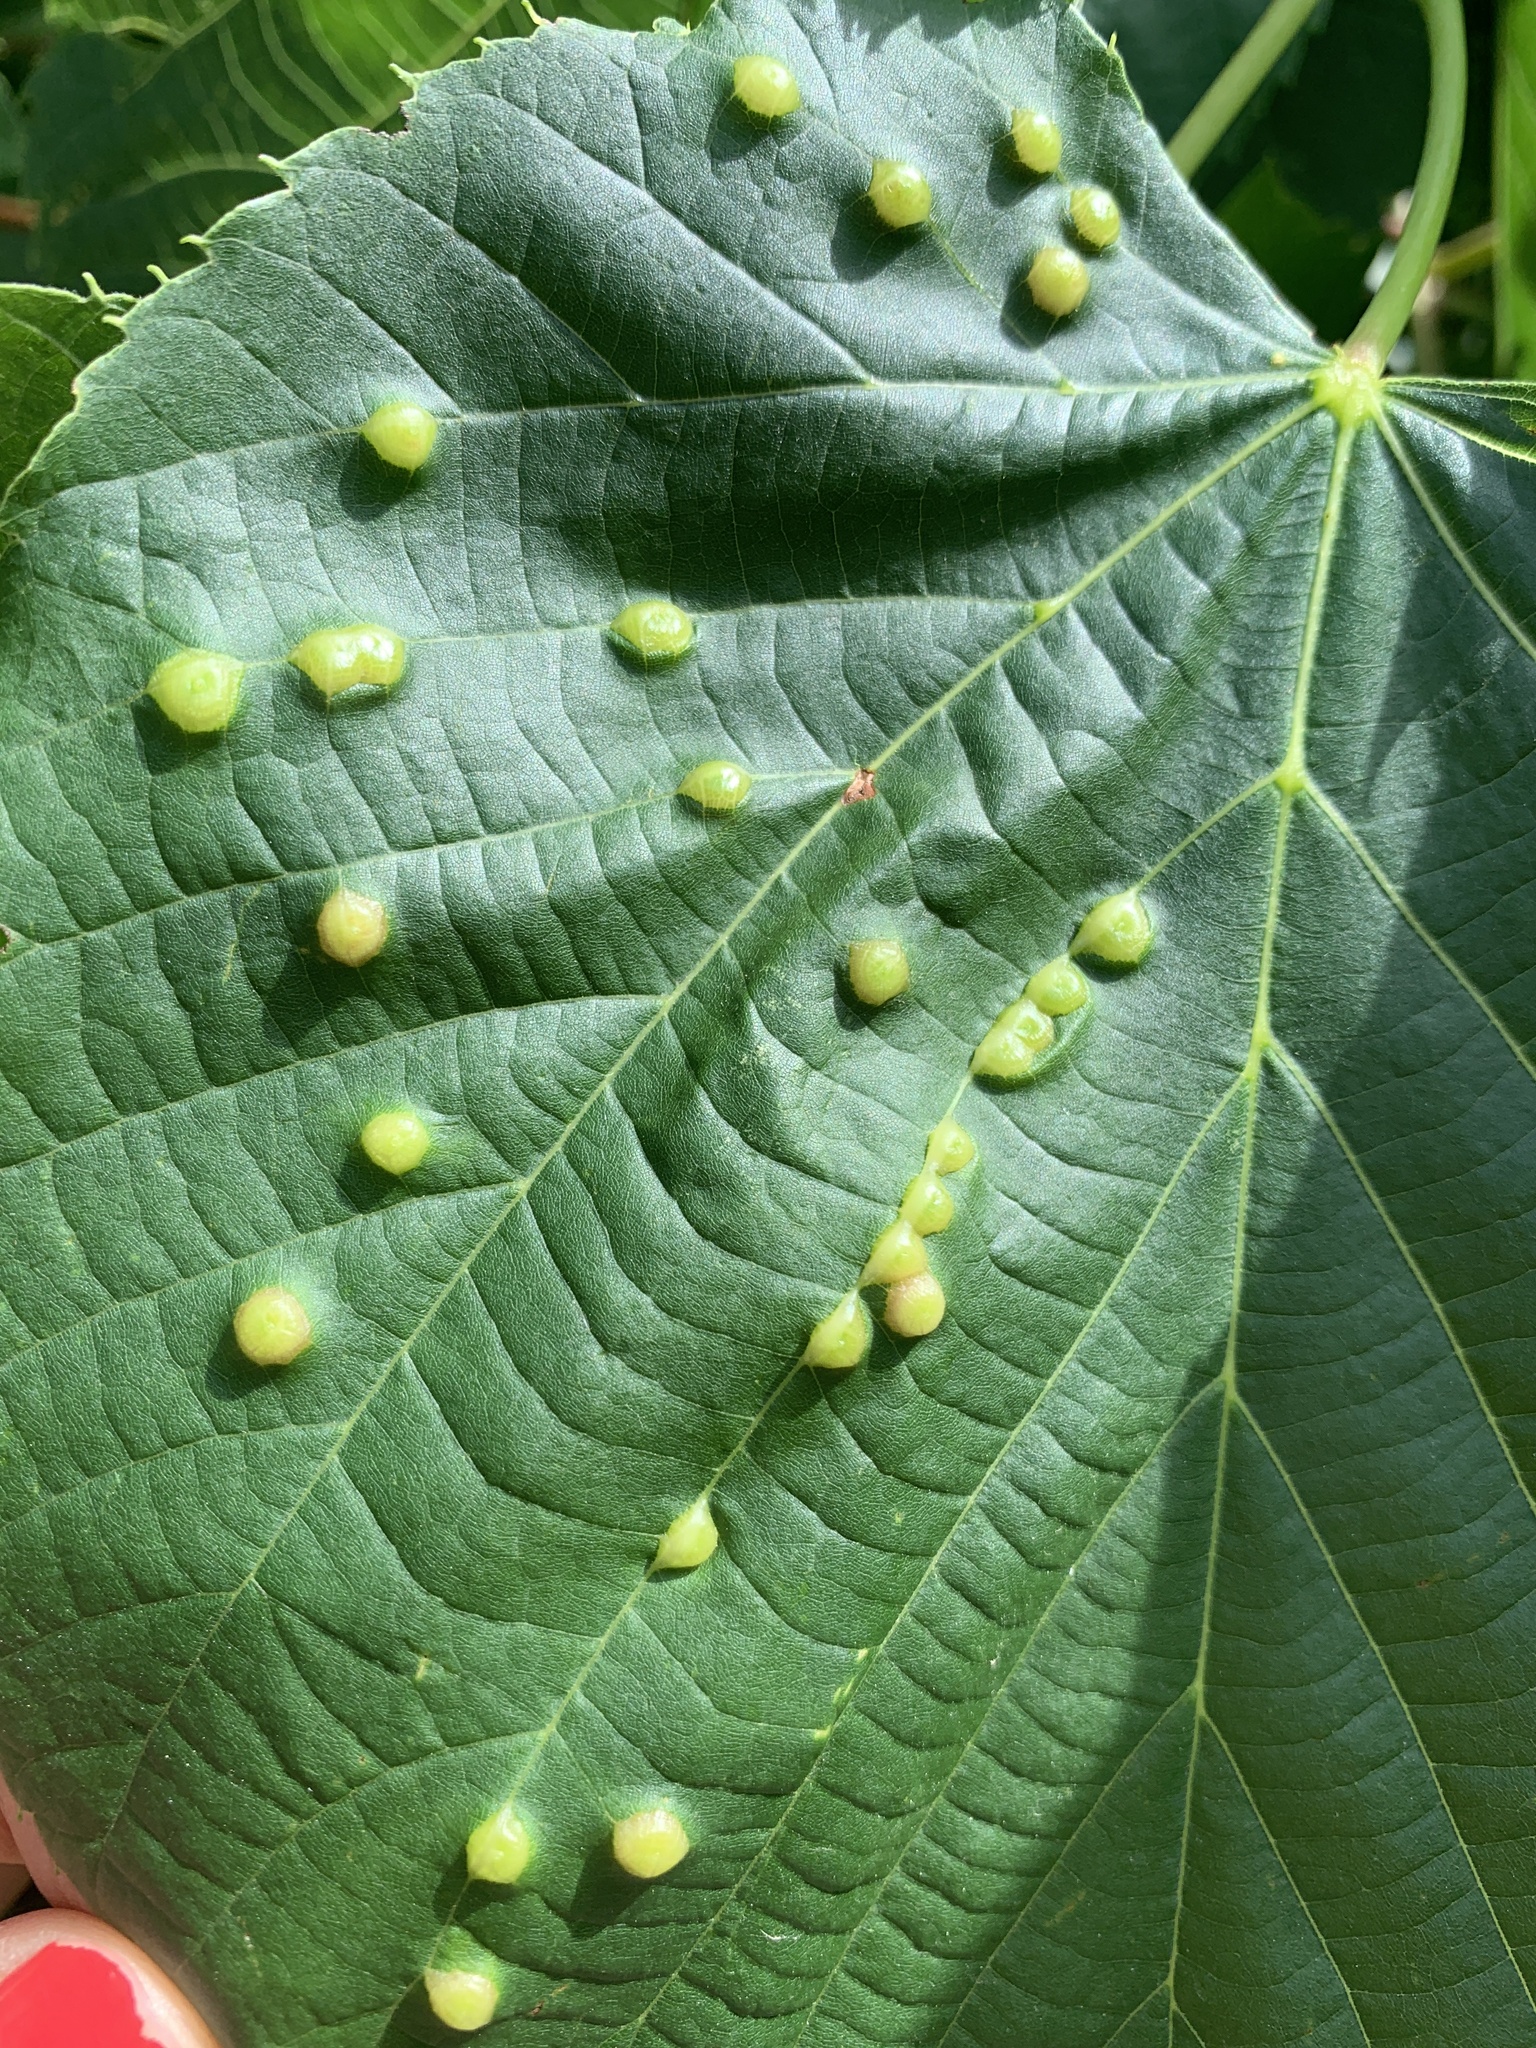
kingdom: Animalia
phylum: Arthropoda
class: Insecta
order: Diptera
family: Cecidomyiidae
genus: Contarinia
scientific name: Contarinia verrucicola
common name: Linden wart gall midge
